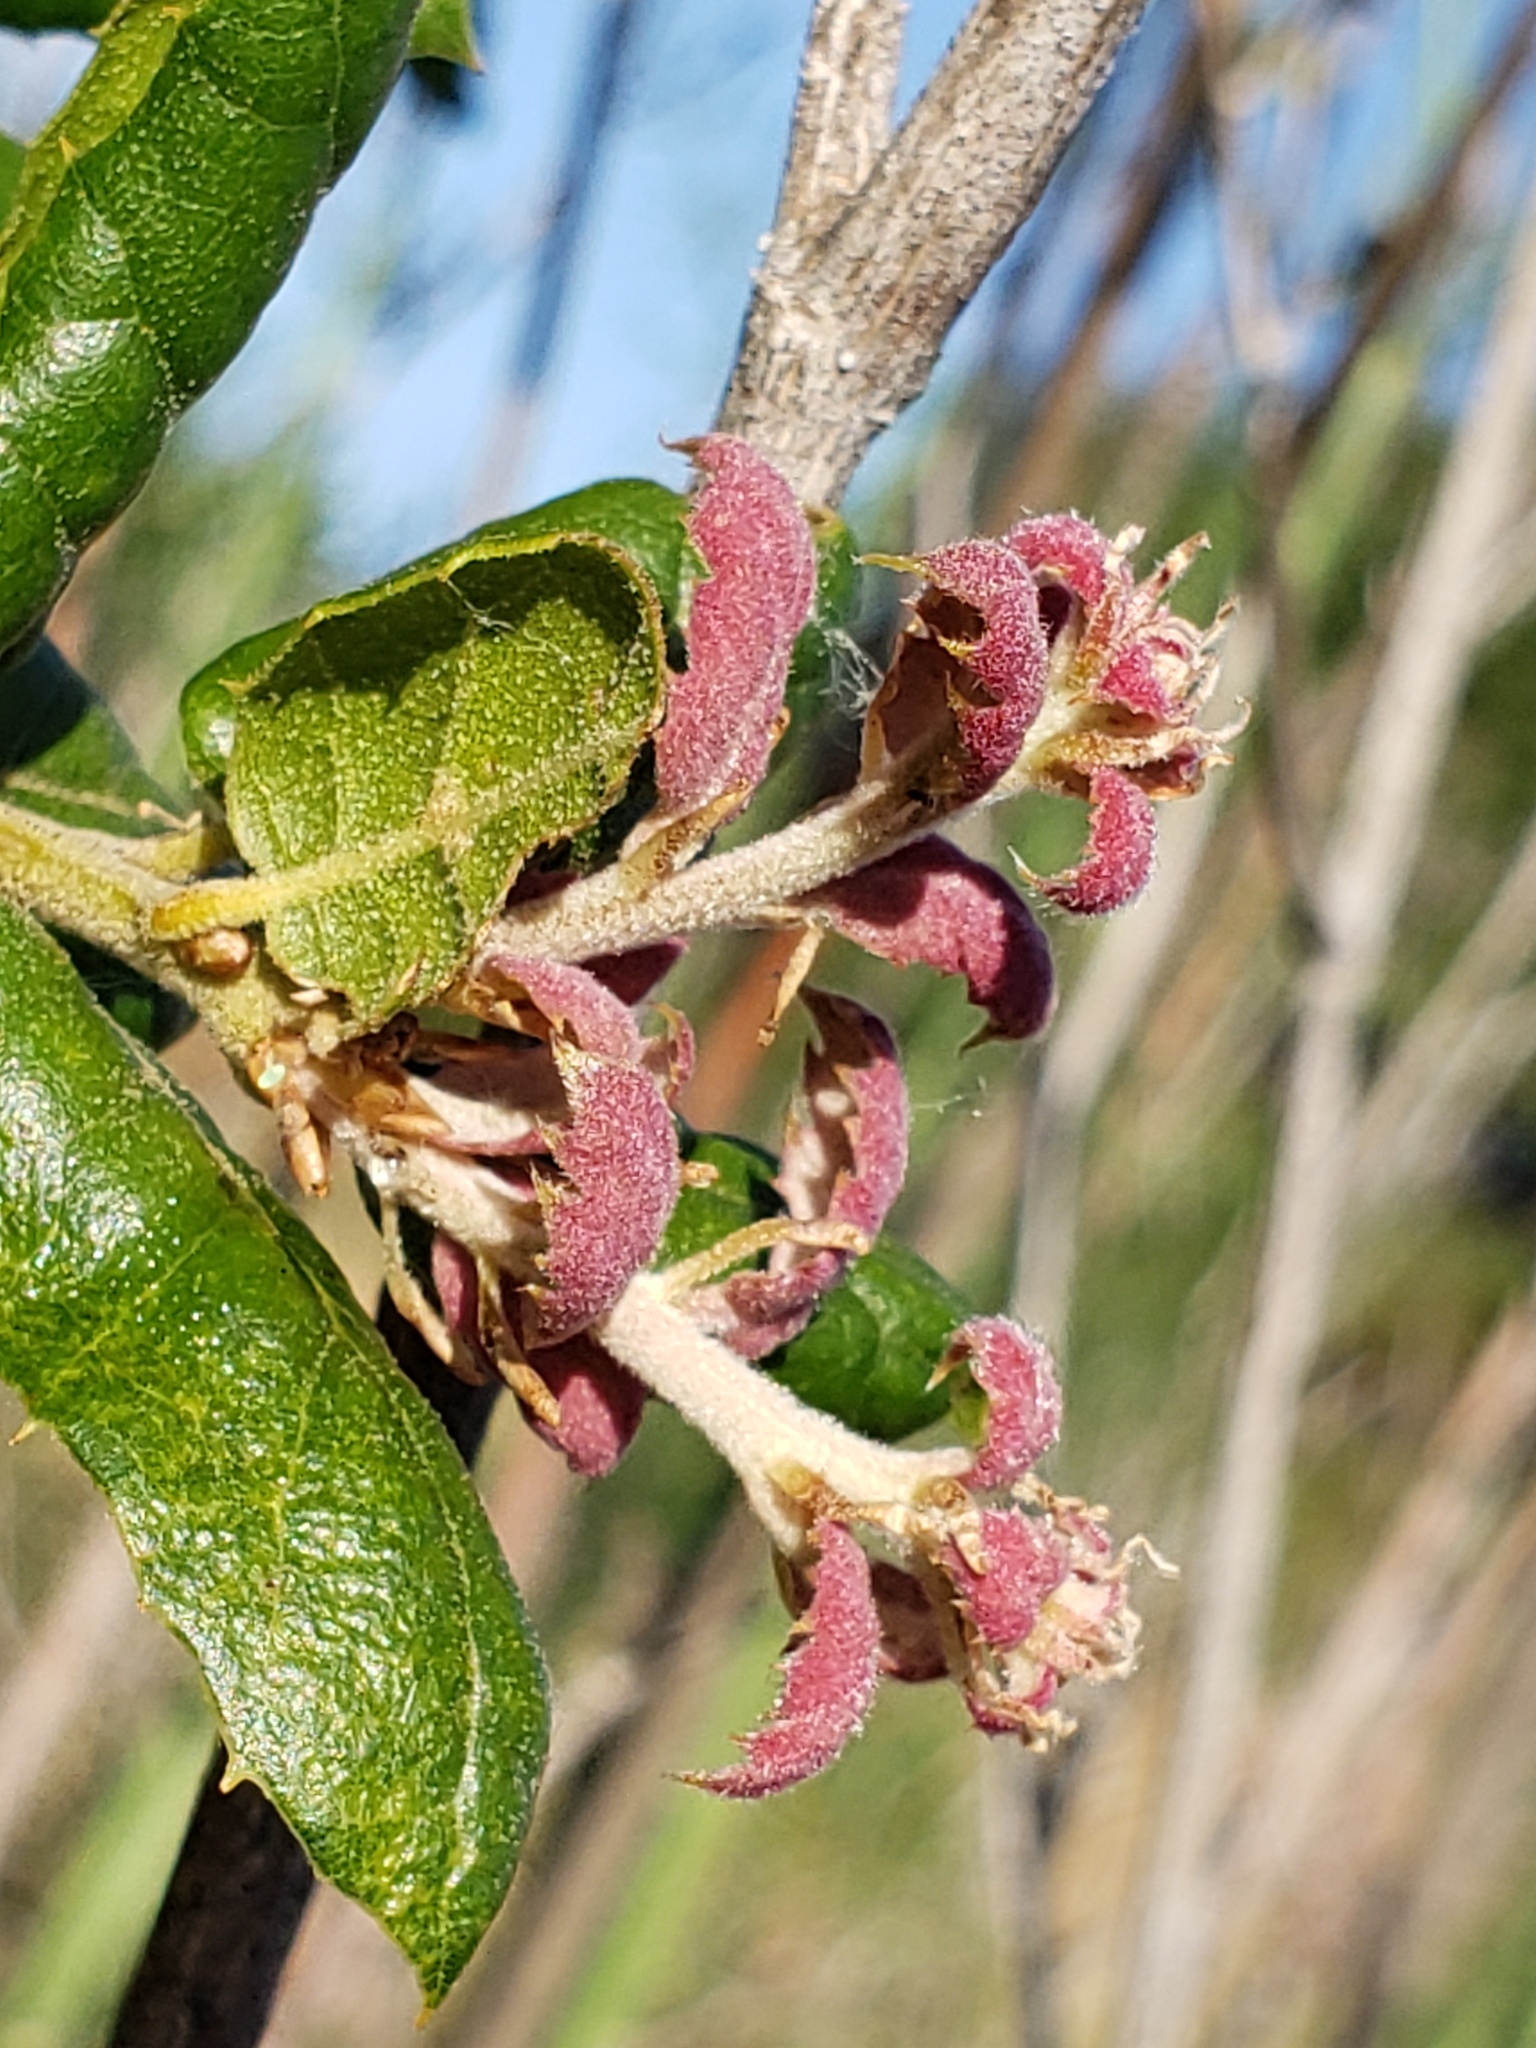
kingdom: Plantae
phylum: Tracheophyta
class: Magnoliopsida
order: Fagales
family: Fagaceae
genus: Quercus
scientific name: Quercus agrifolia
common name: California live oak
